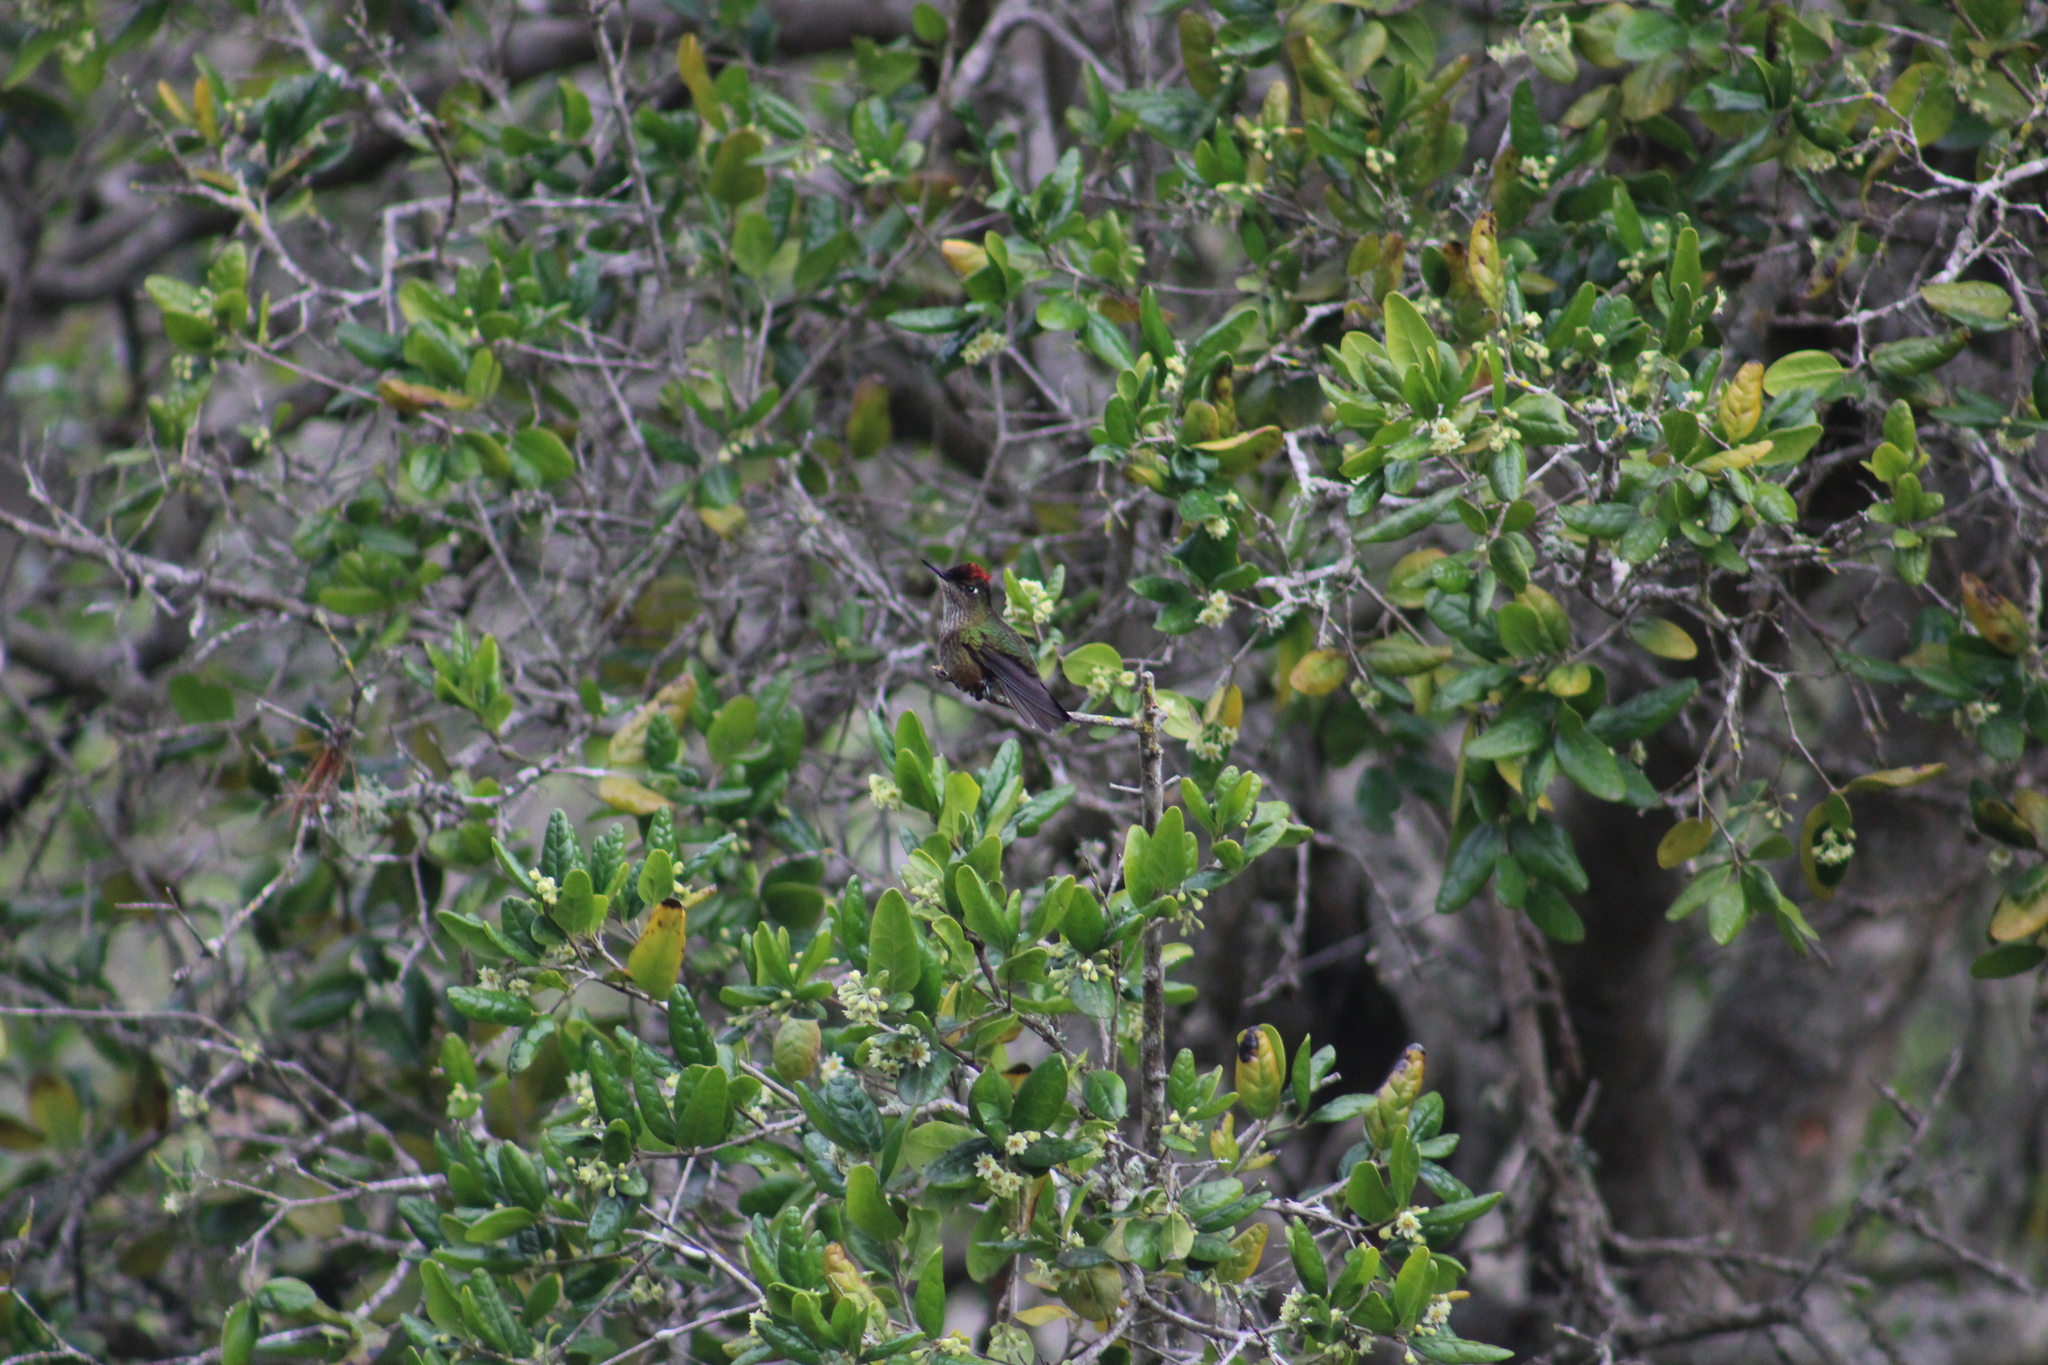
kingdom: Animalia
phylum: Chordata
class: Aves
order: Apodiformes
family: Trochilidae
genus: Sephanoides
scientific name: Sephanoides sephaniodes
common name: Green-backed firecrown
